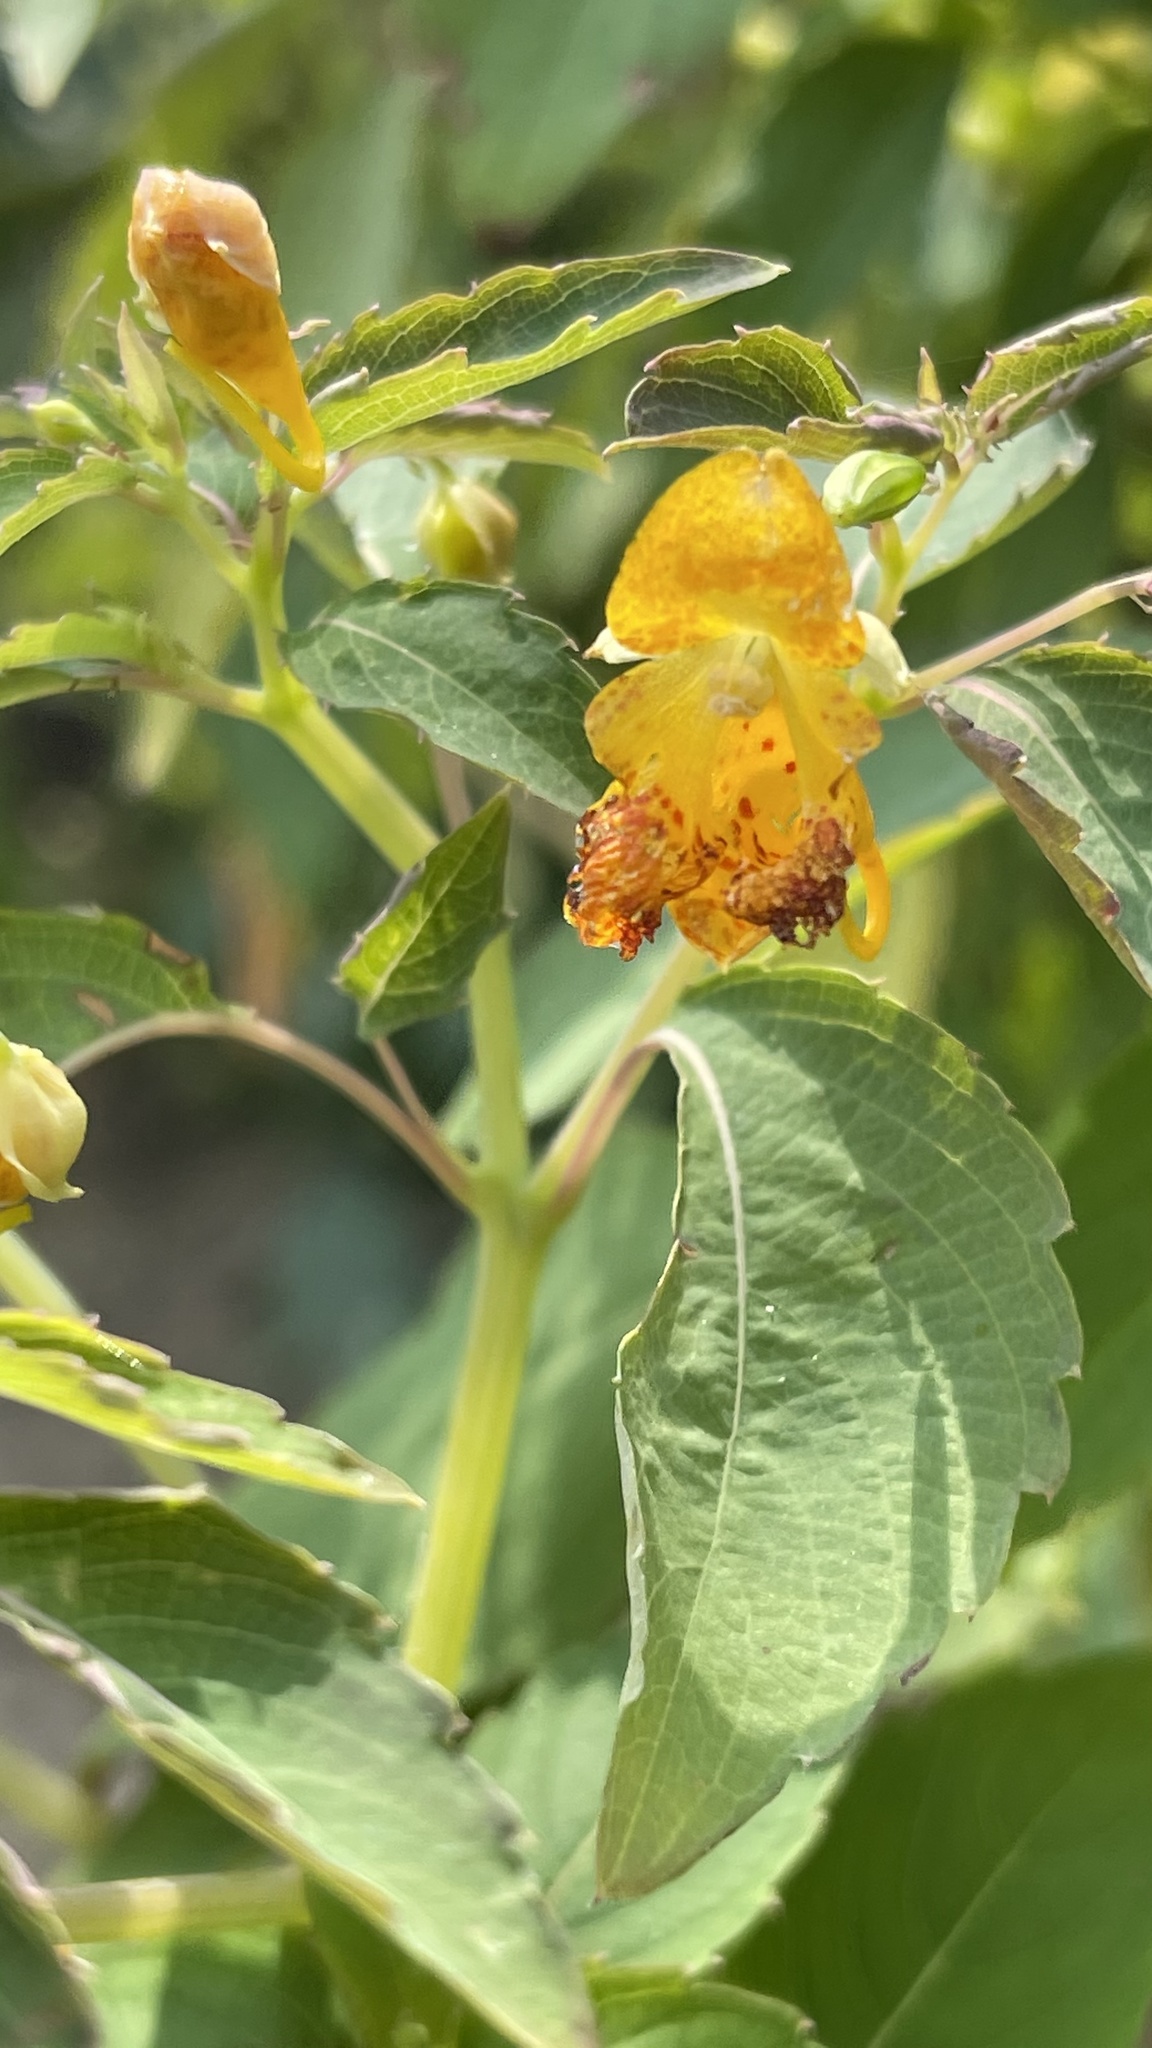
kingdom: Plantae
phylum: Tracheophyta
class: Magnoliopsida
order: Ericales
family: Balsaminaceae
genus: Impatiens
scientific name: Impatiens capensis
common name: Orange balsam
